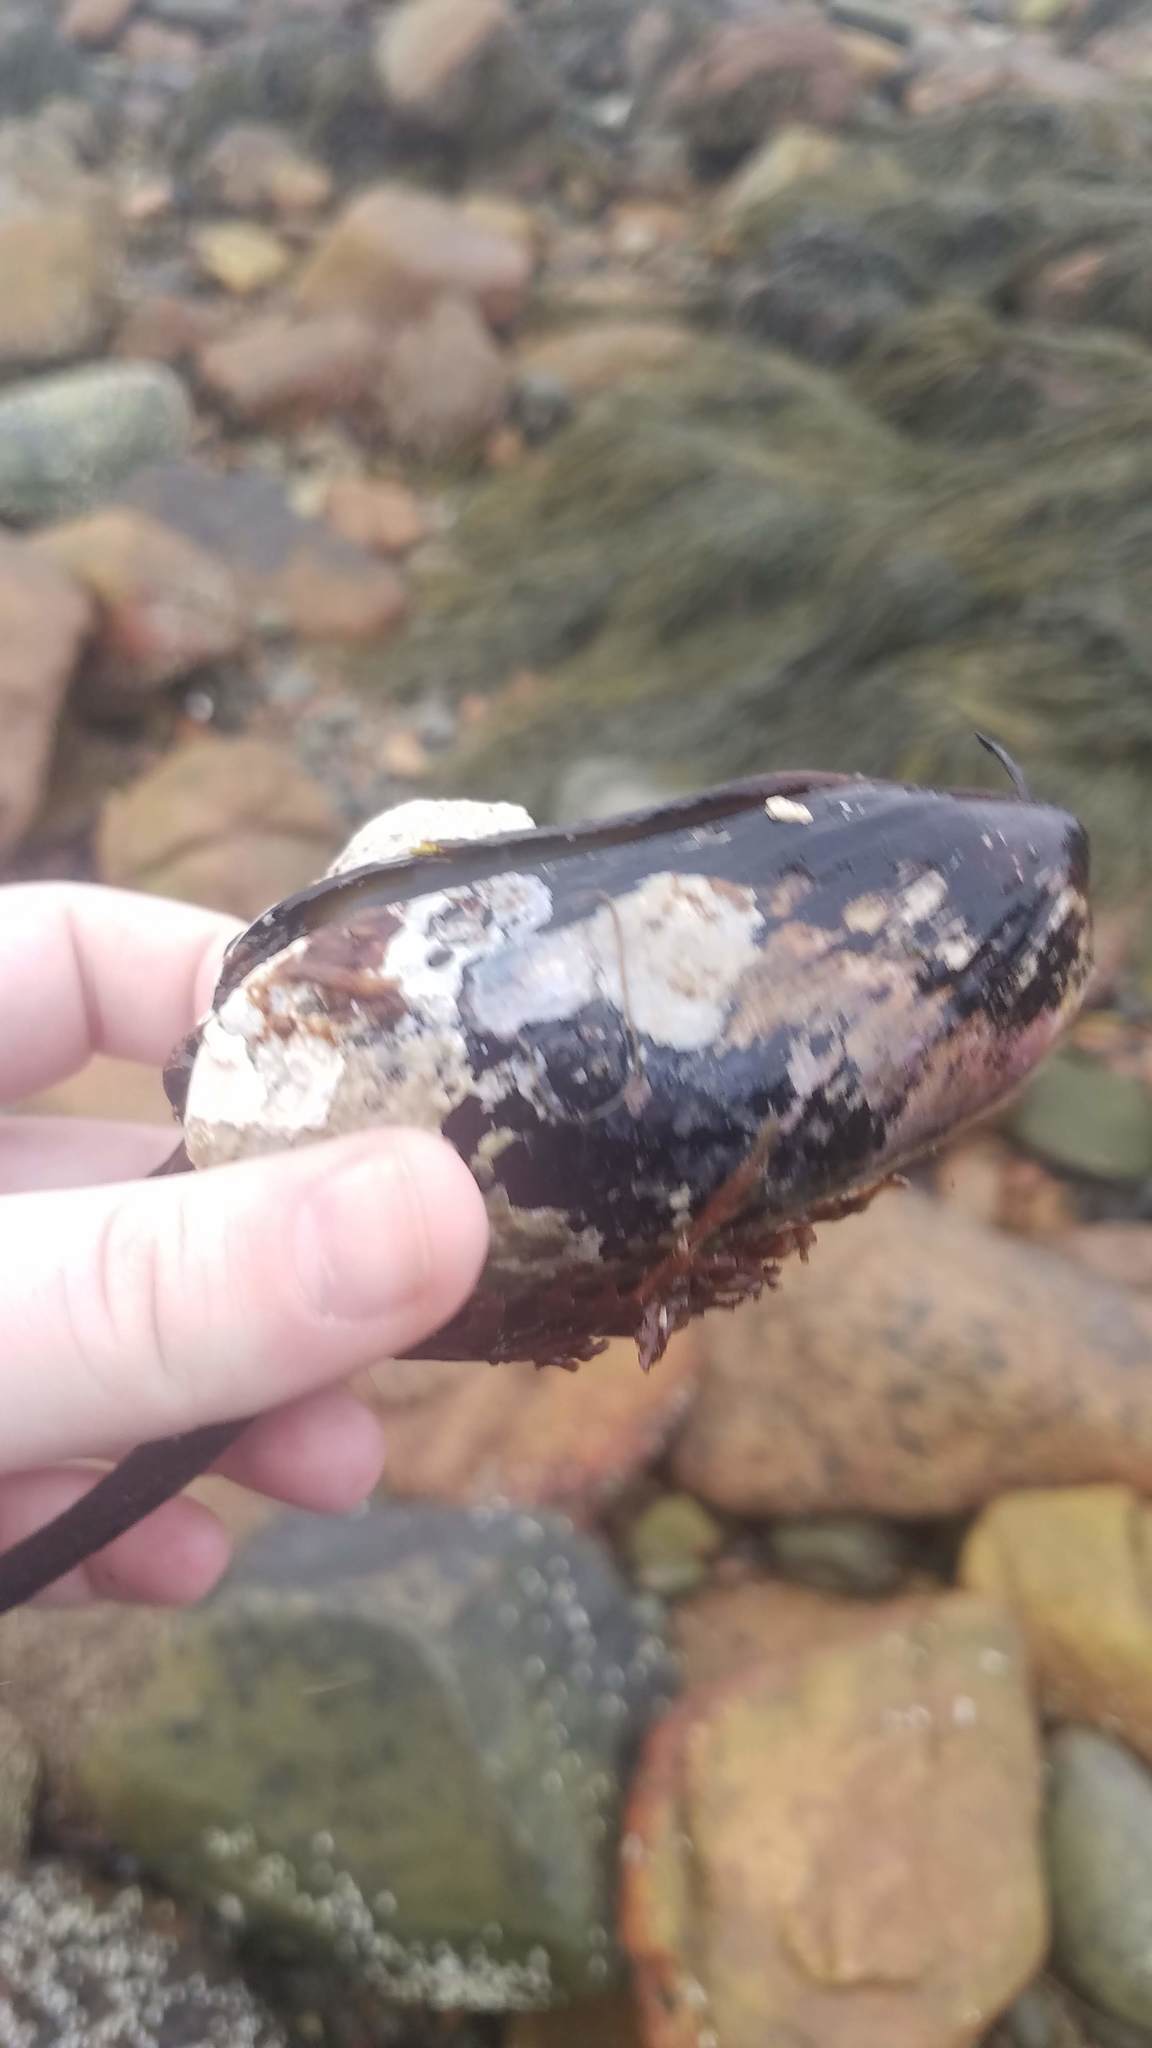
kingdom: Animalia
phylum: Mollusca
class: Bivalvia
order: Mytilida
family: Mytilidae
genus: Modiolus
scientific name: Modiolus modiolus
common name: Horse-mussel
